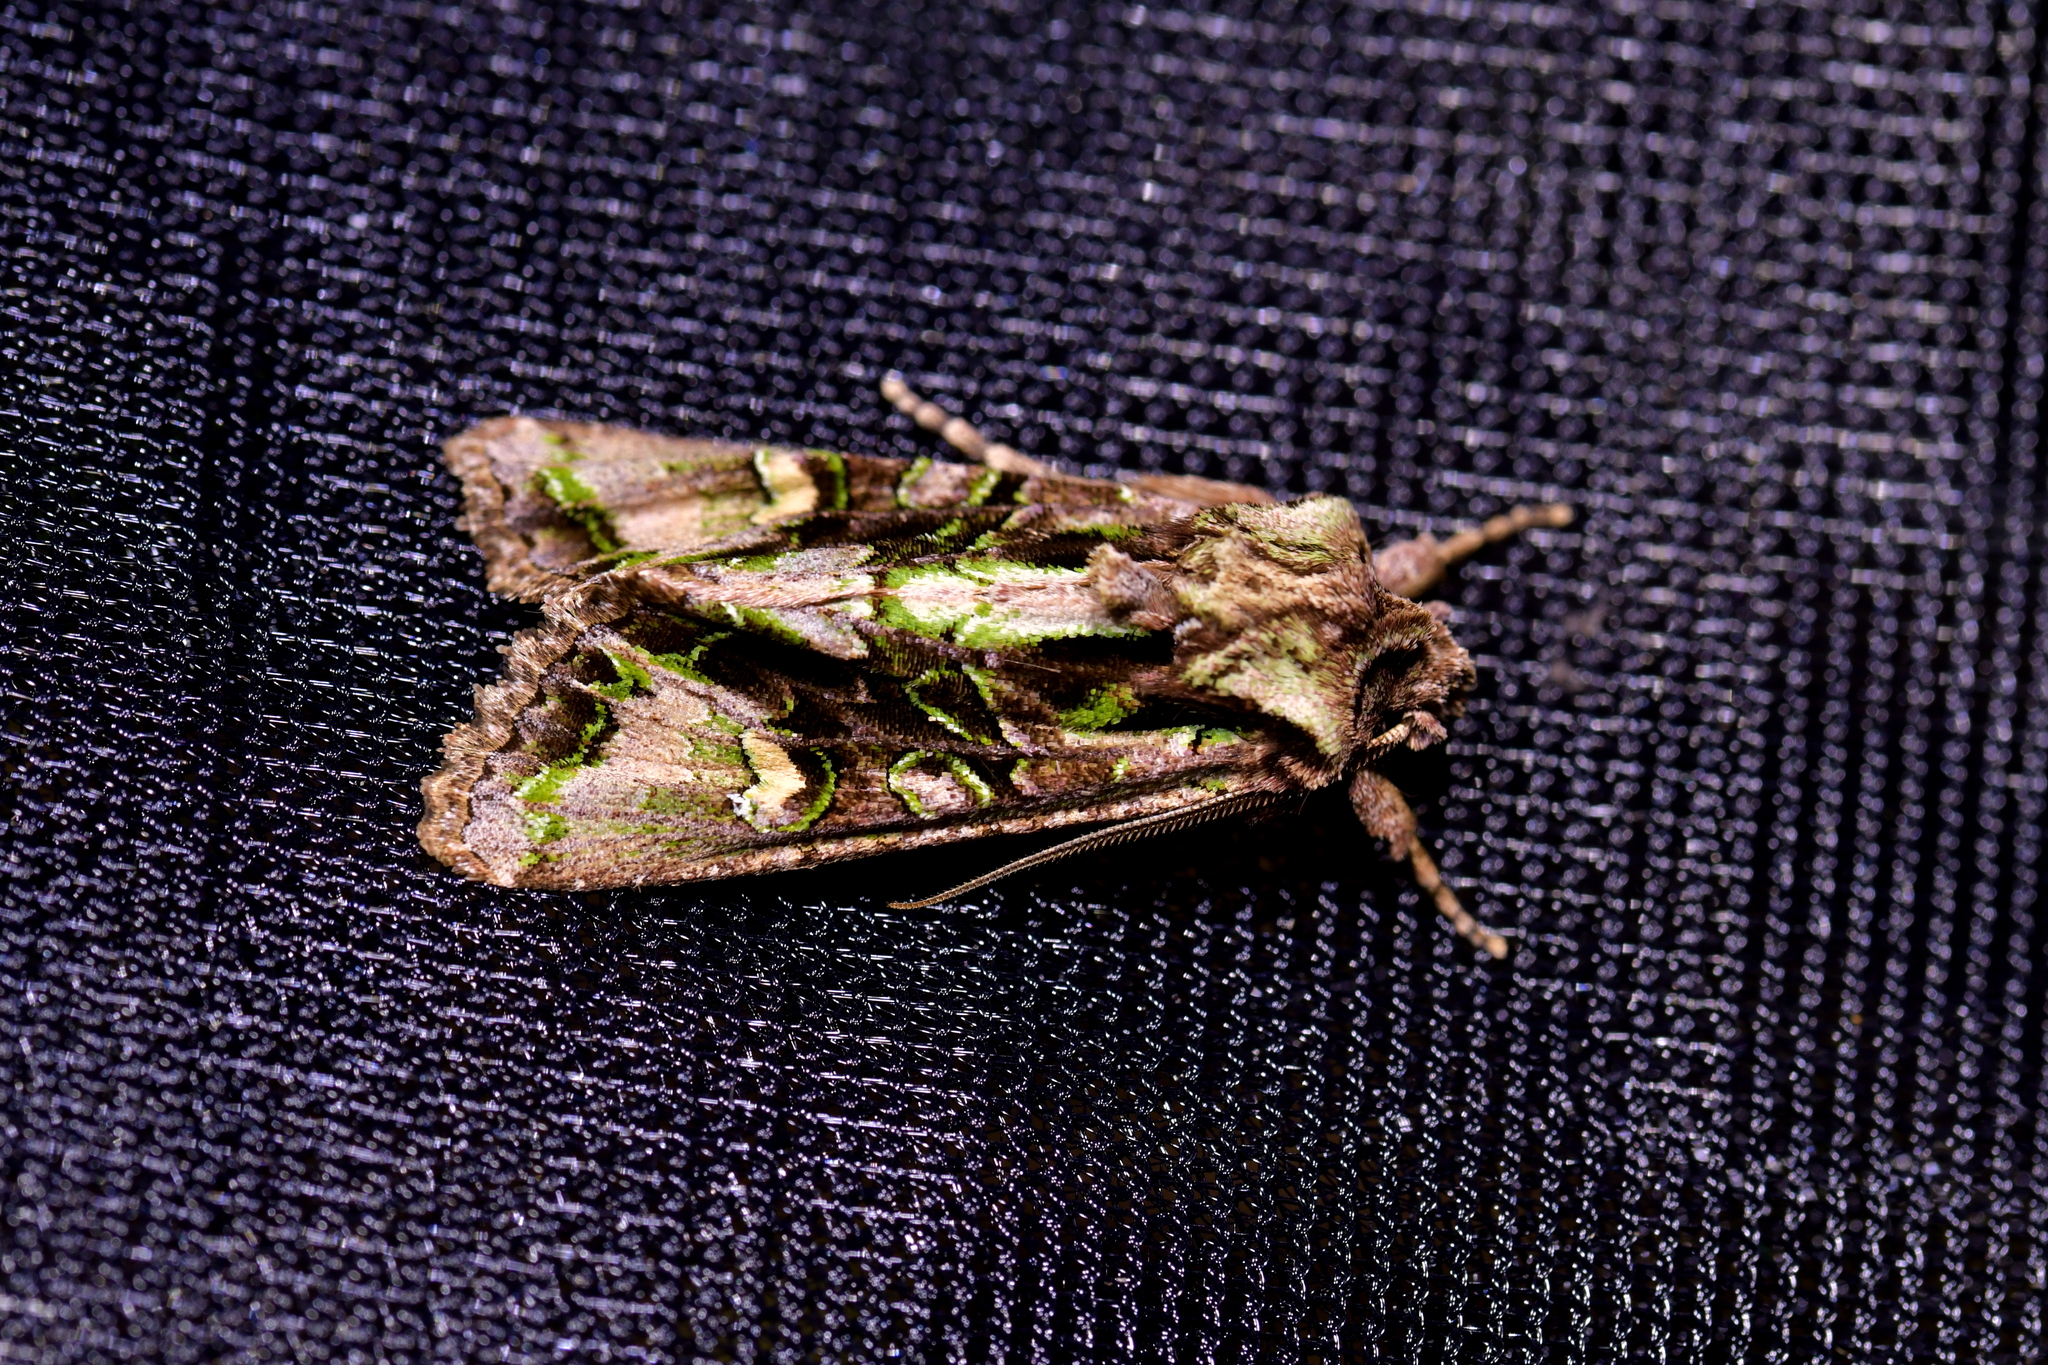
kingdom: Animalia
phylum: Arthropoda
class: Insecta
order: Lepidoptera
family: Noctuidae
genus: Ichneutica
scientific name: Ichneutica insignis
